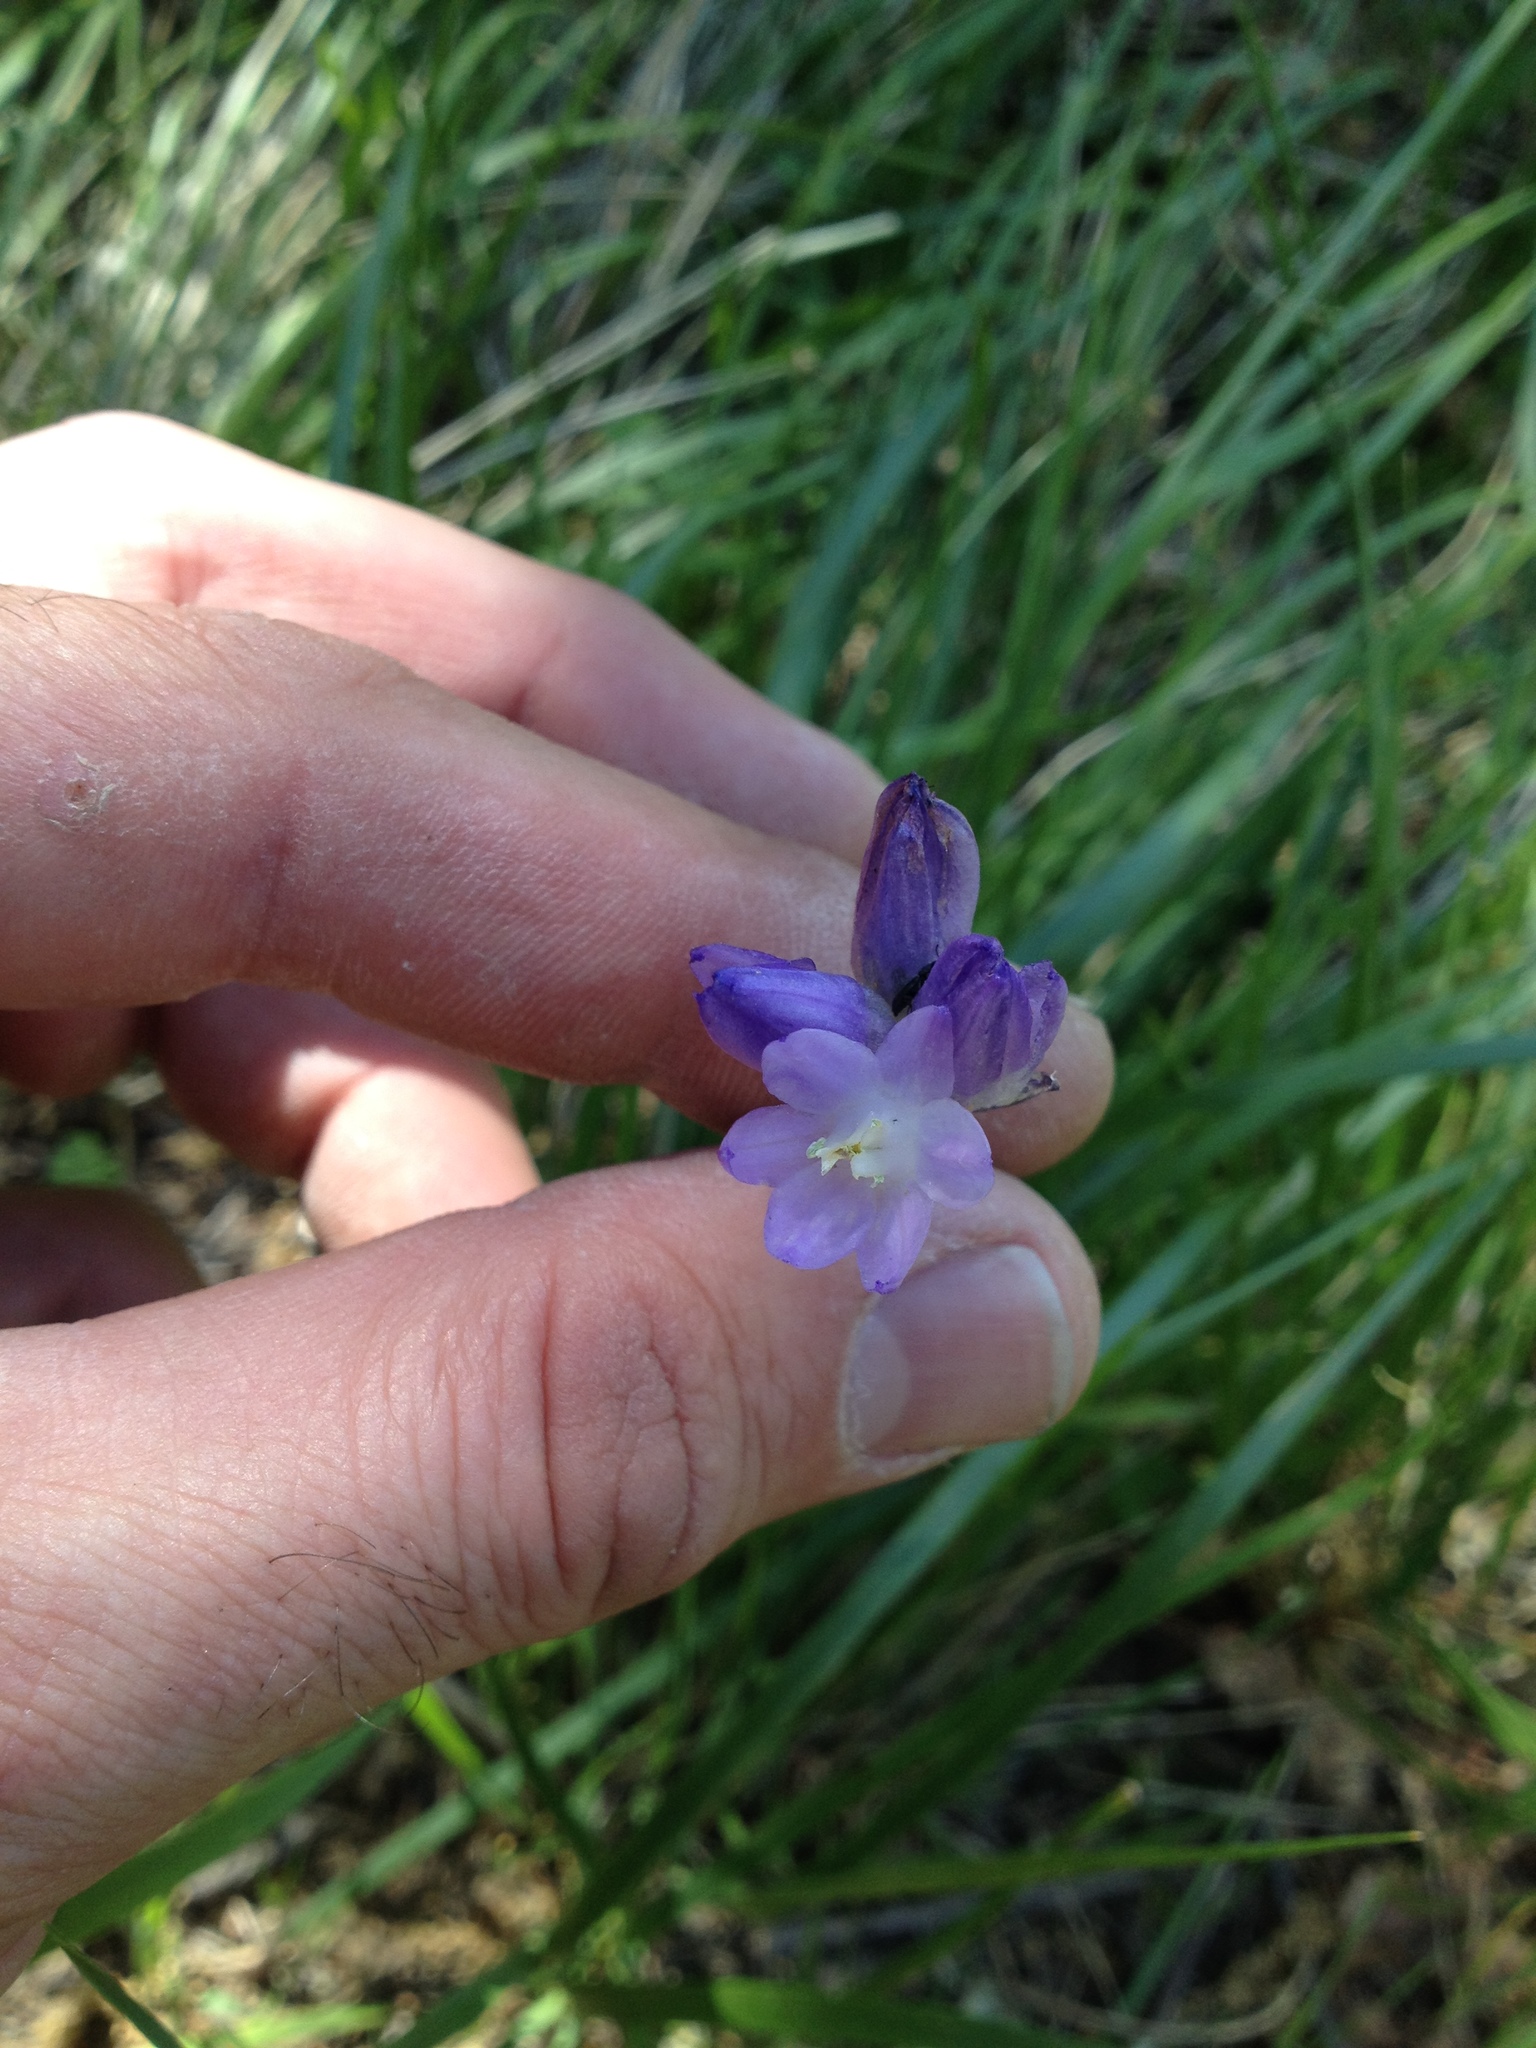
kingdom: Plantae
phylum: Tracheophyta
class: Liliopsida
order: Asparagales
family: Asparagaceae
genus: Dipterostemon
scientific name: Dipterostemon capitatus
